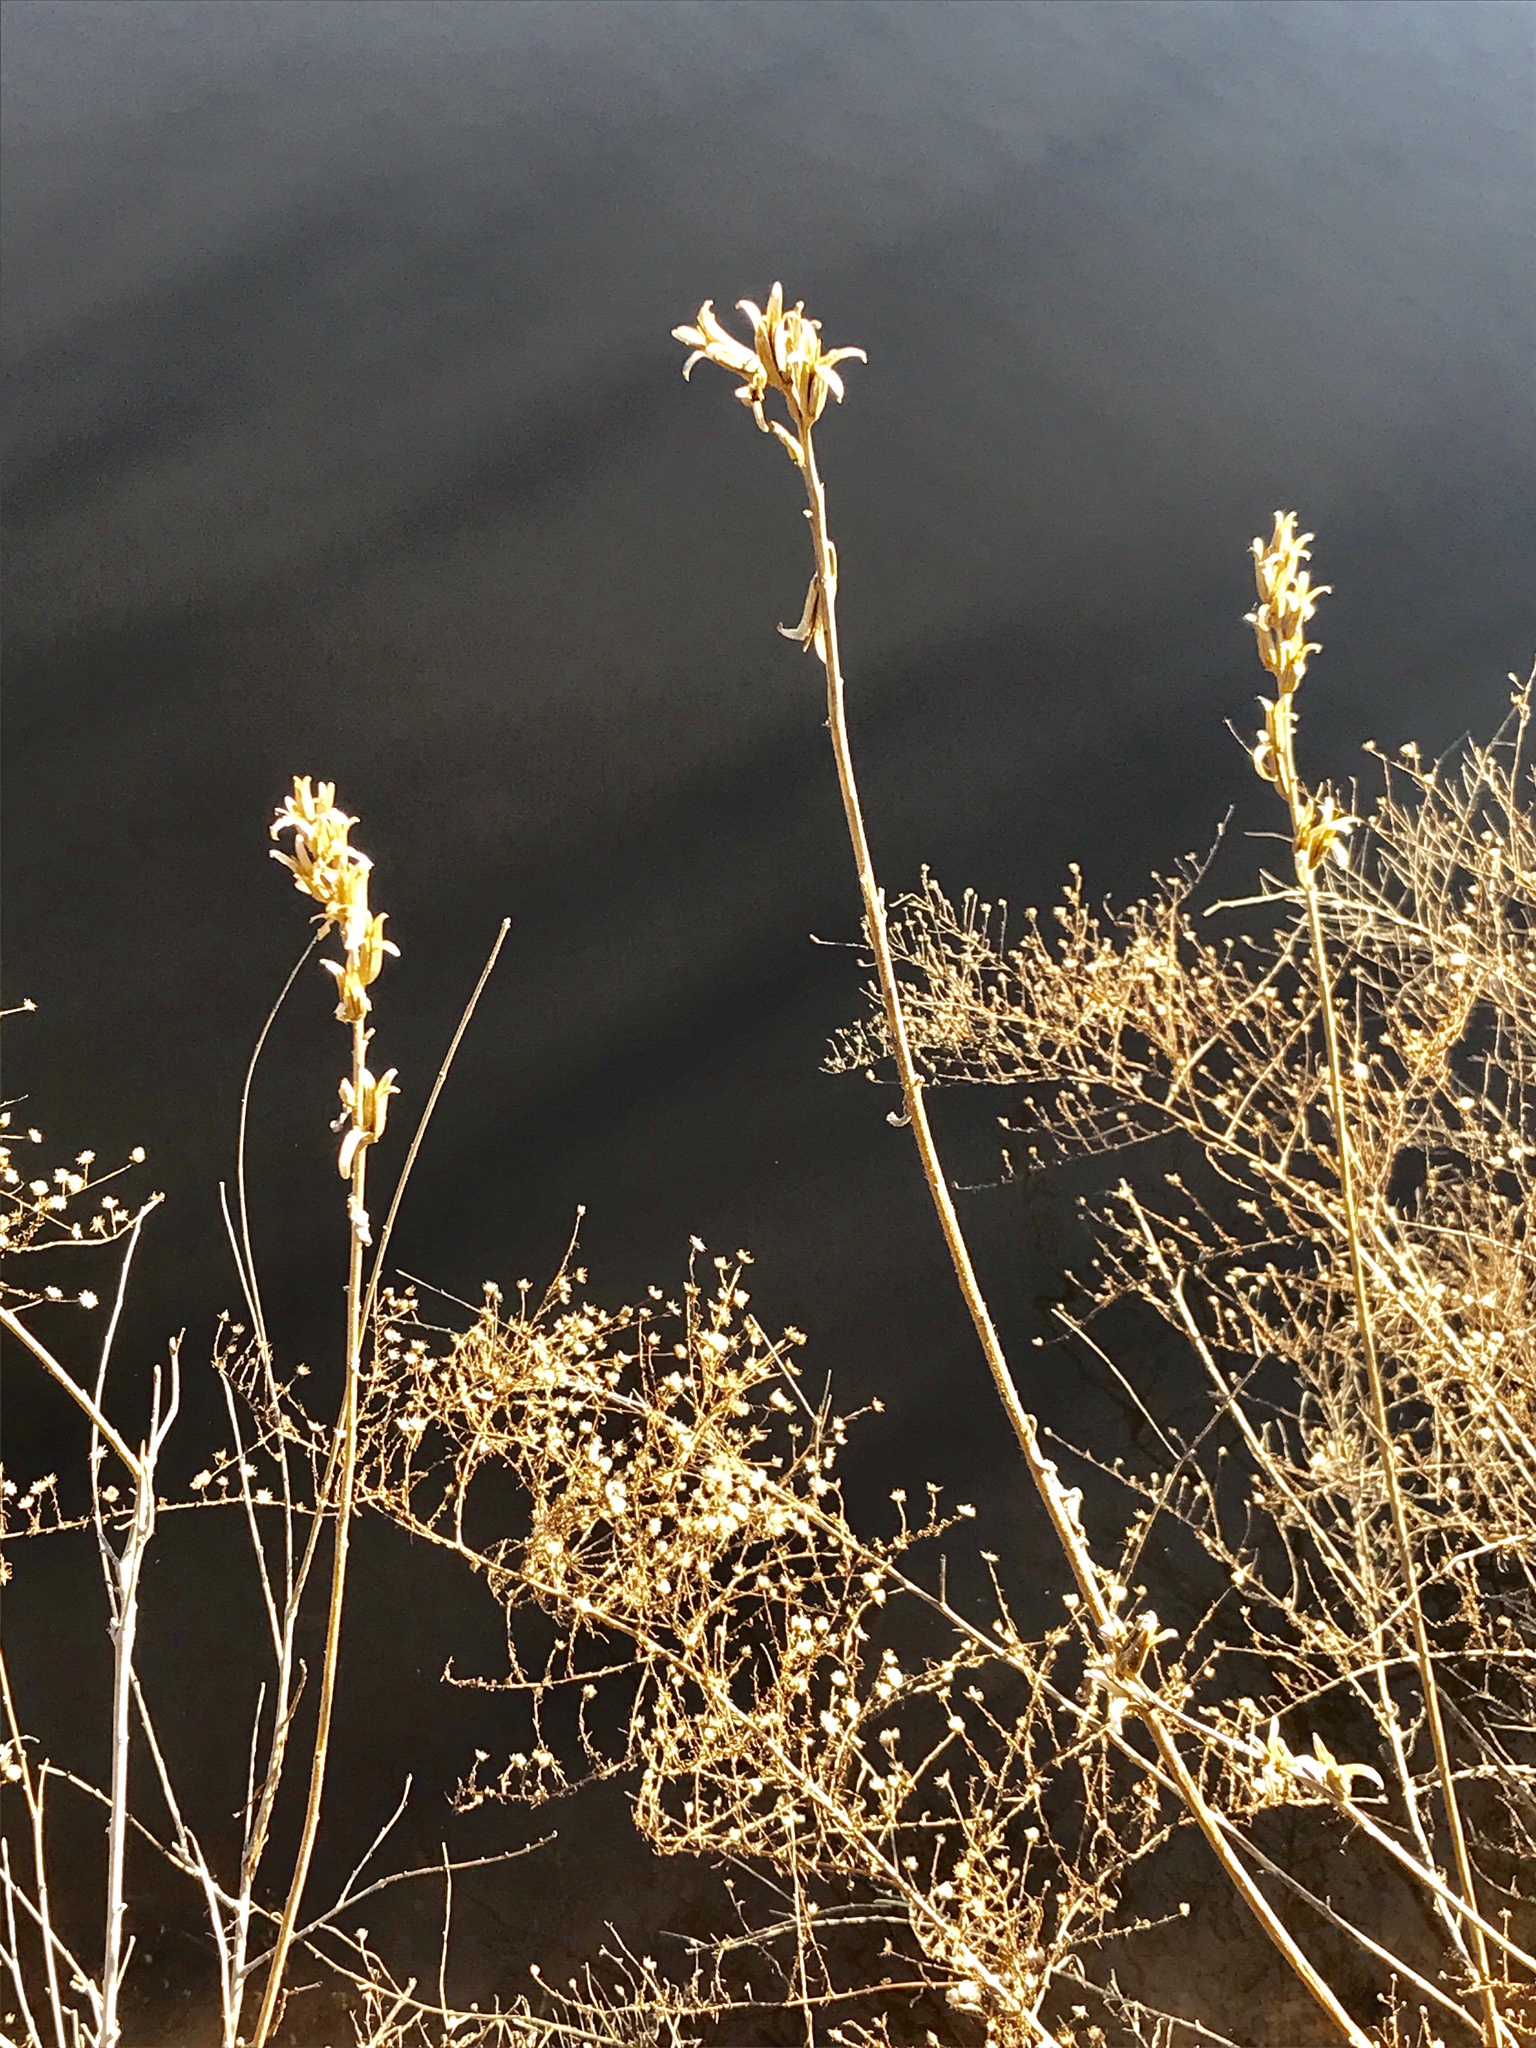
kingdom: Plantae
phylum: Tracheophyta
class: Magnoliopsida
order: Myrtales
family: Onagraceae
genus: Oenothera
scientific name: Oenothera biennis
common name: Common evening-primrose
